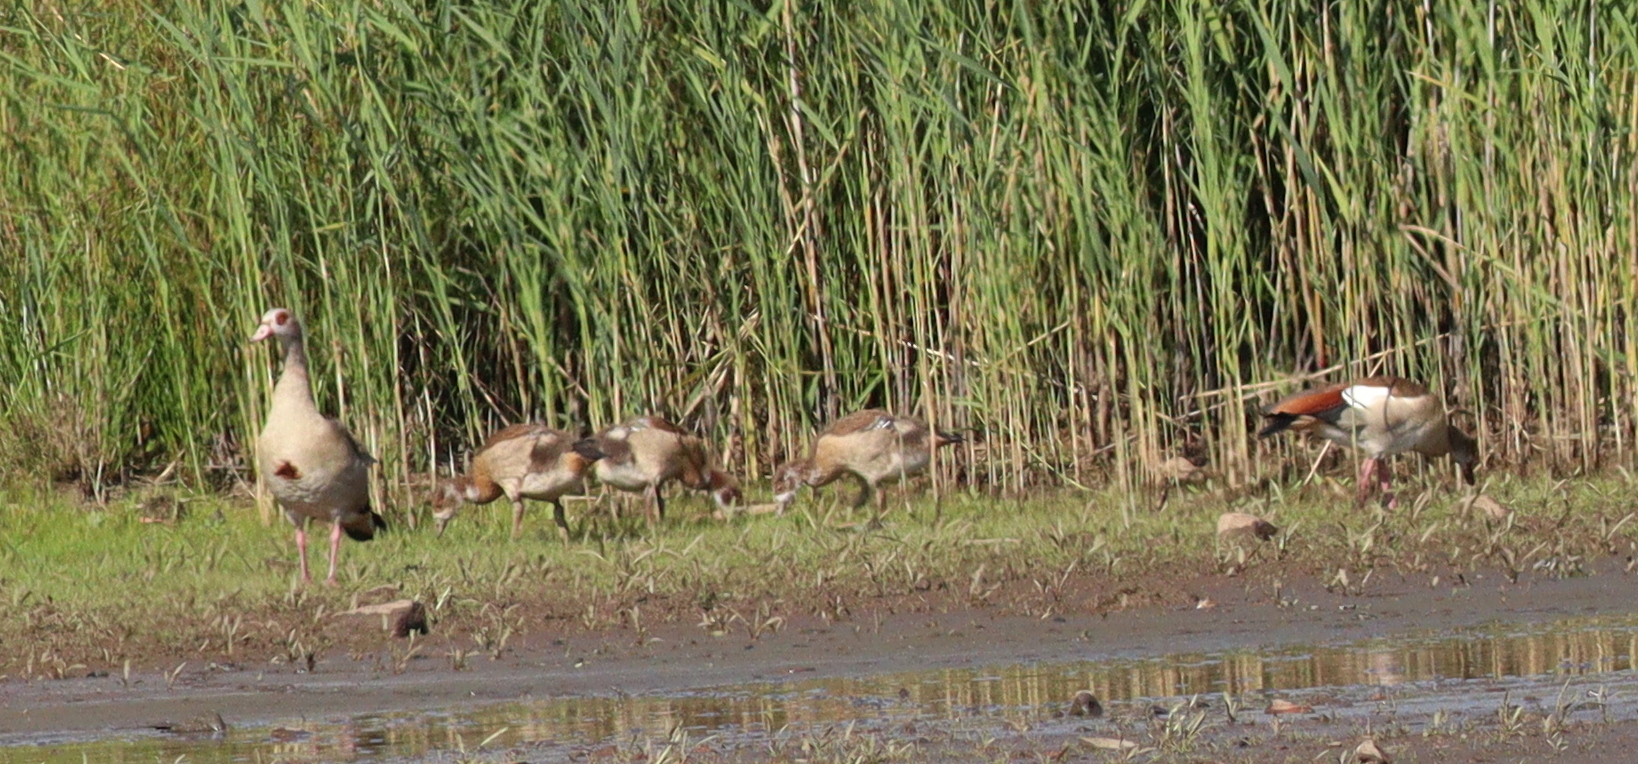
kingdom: Animalia
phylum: Chordata
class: Aves
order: Anseriformes
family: Anatidae
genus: Alopochen
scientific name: Alopochen aegyptiaca
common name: Egyptian goose
